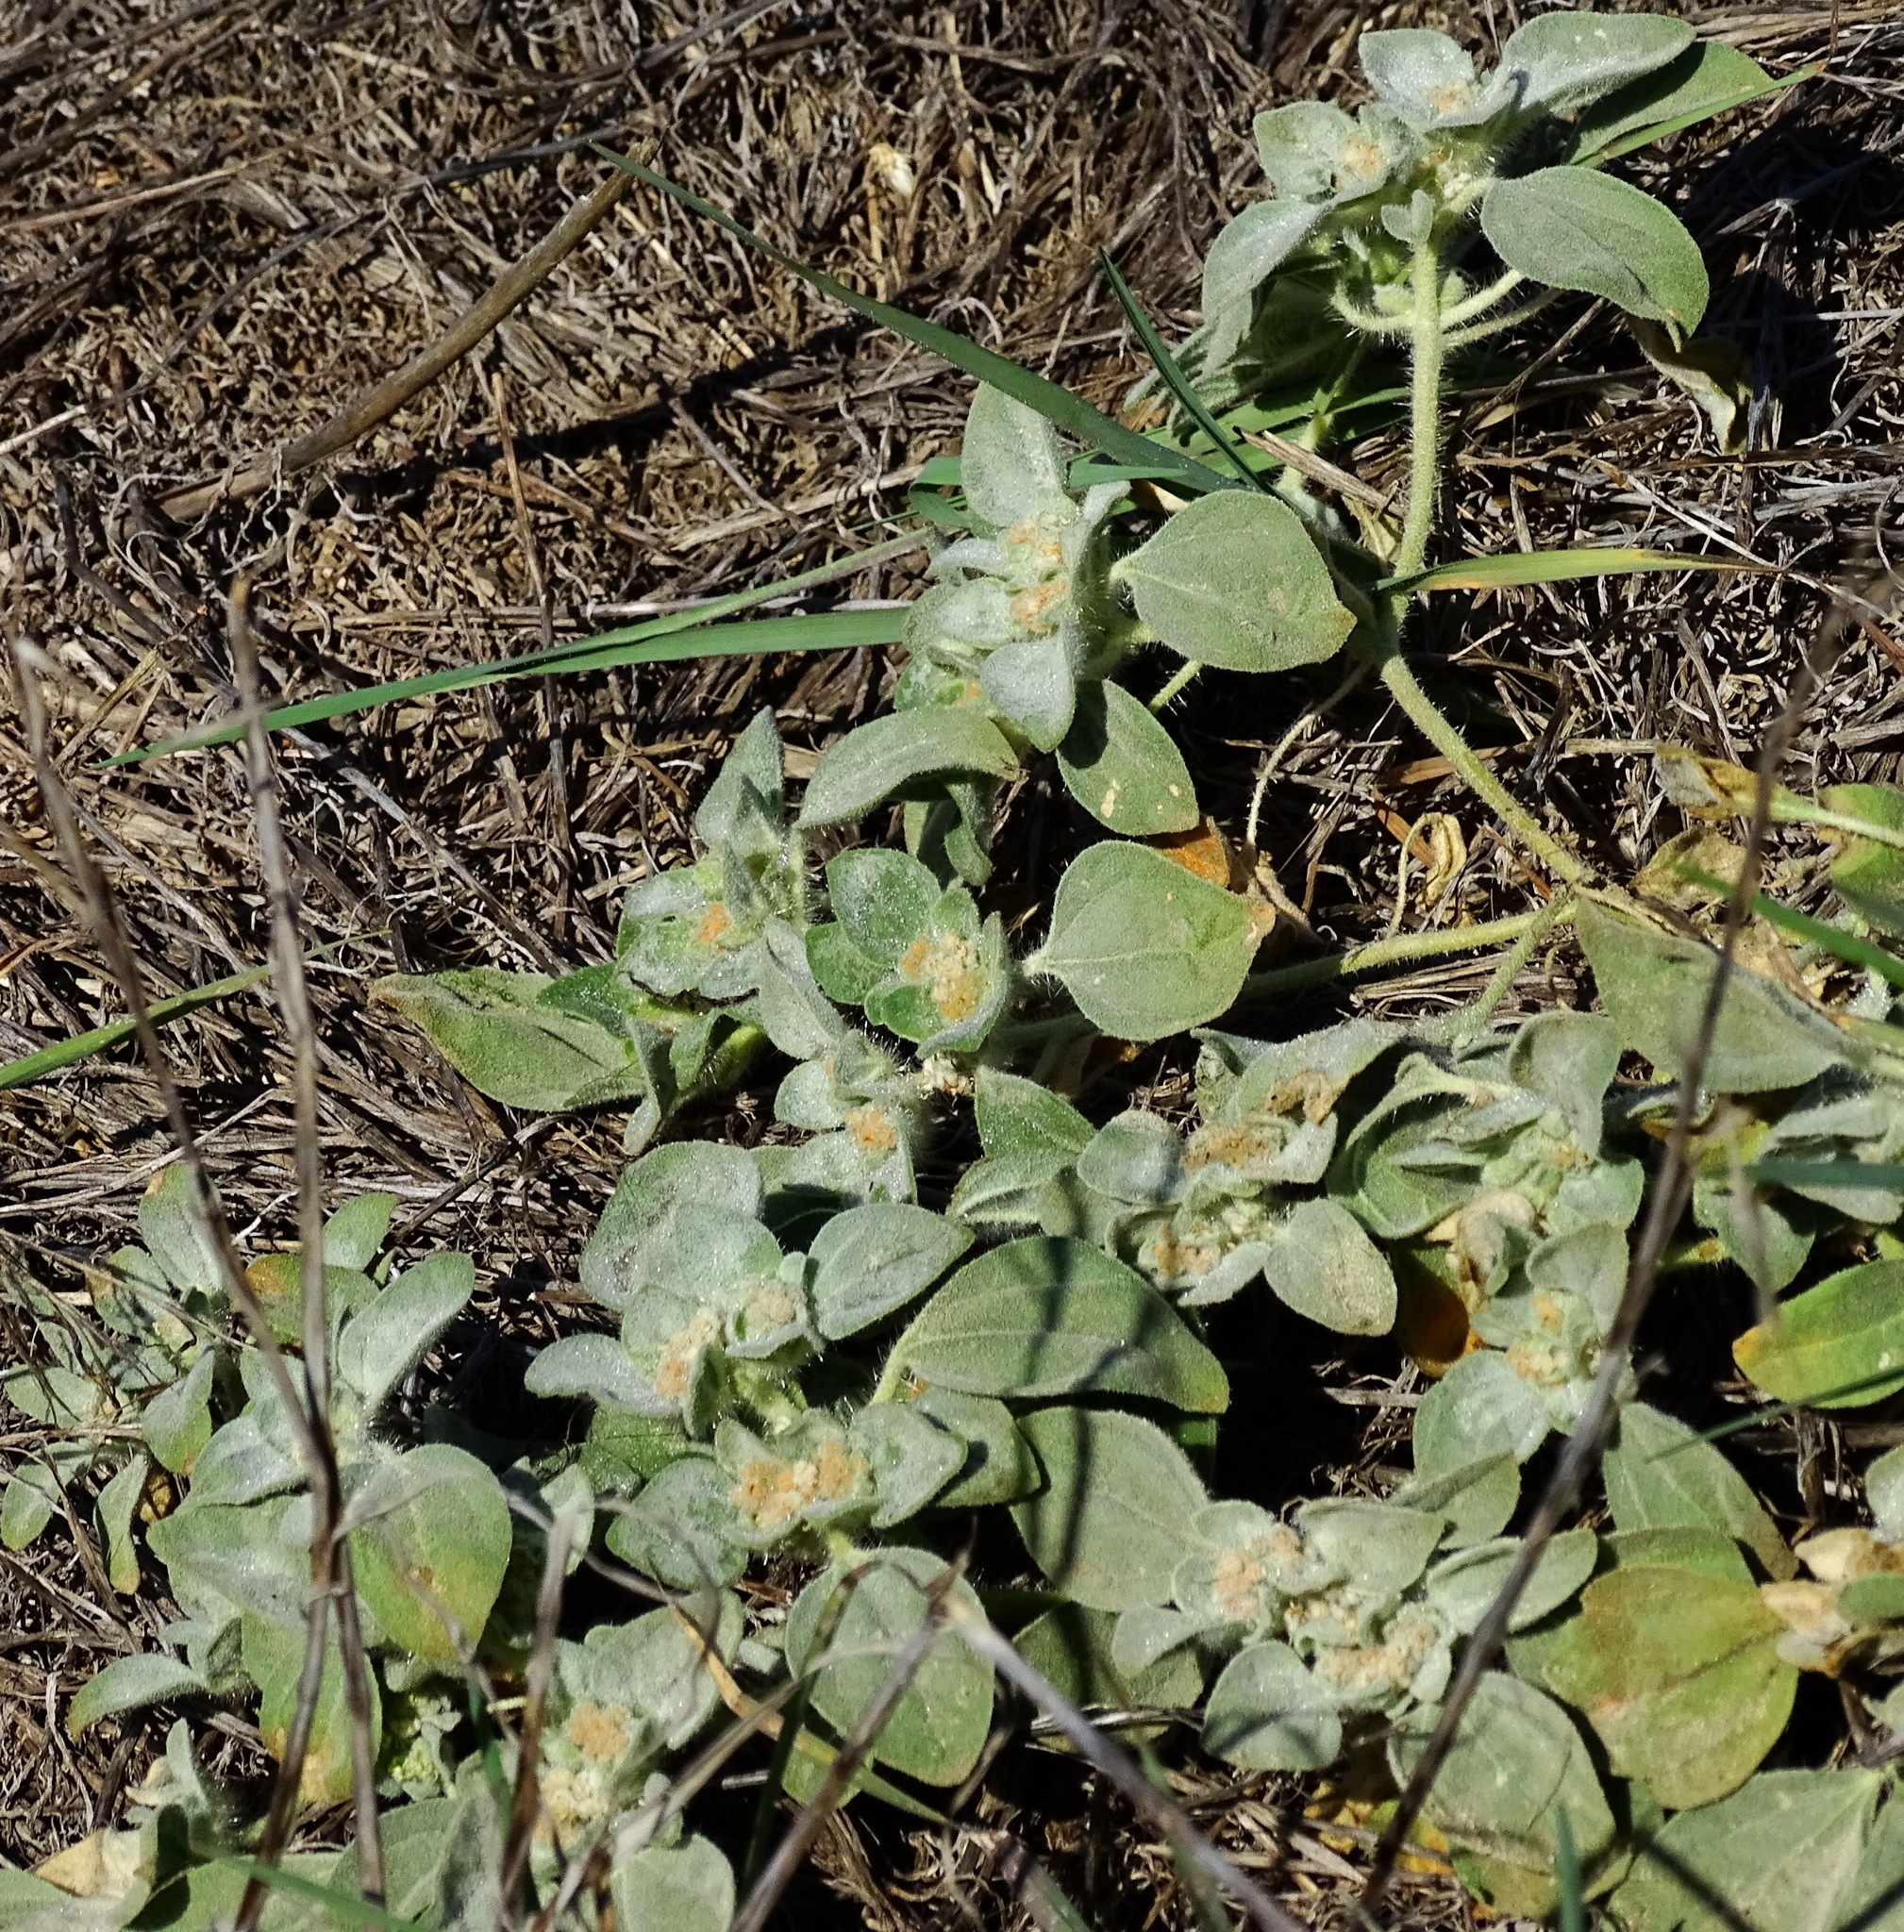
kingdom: Plantae
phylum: Tracheophyta
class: Magnoliopsida
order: Malpighiales
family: Euphorbiaceae
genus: Croton
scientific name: Croton setiger
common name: Dove weed
